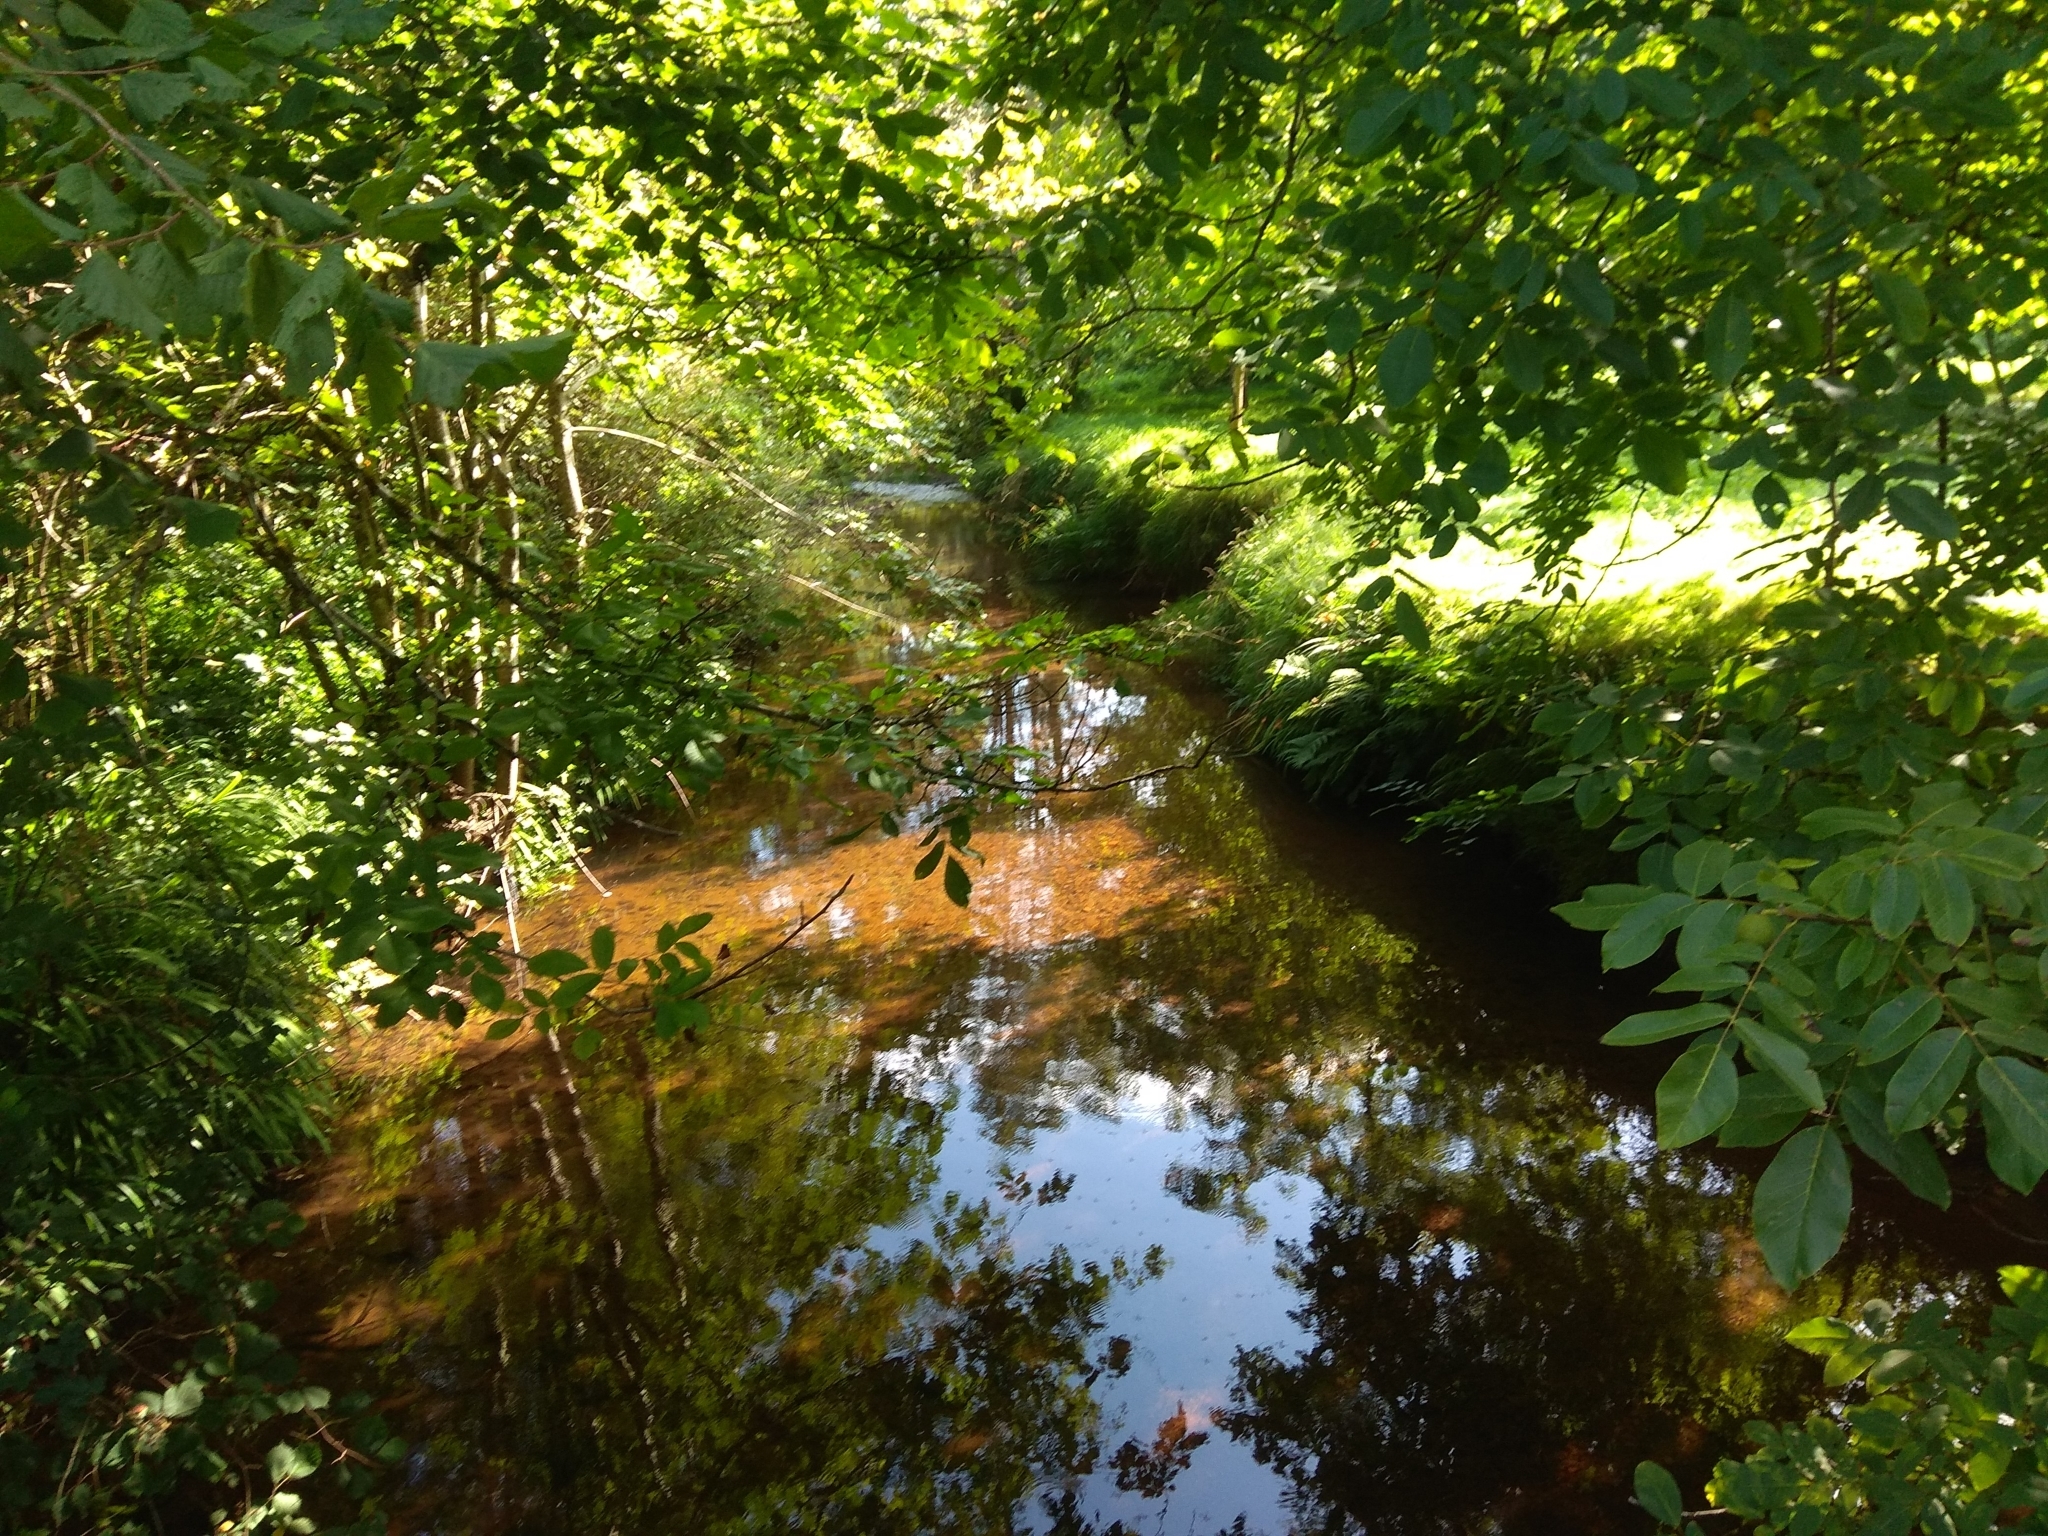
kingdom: Plantae
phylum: Tracheophyta
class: Magnoliopsida
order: Fagales
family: Juglandaceae
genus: Juglans
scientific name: Juglans regia
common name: Walnut
